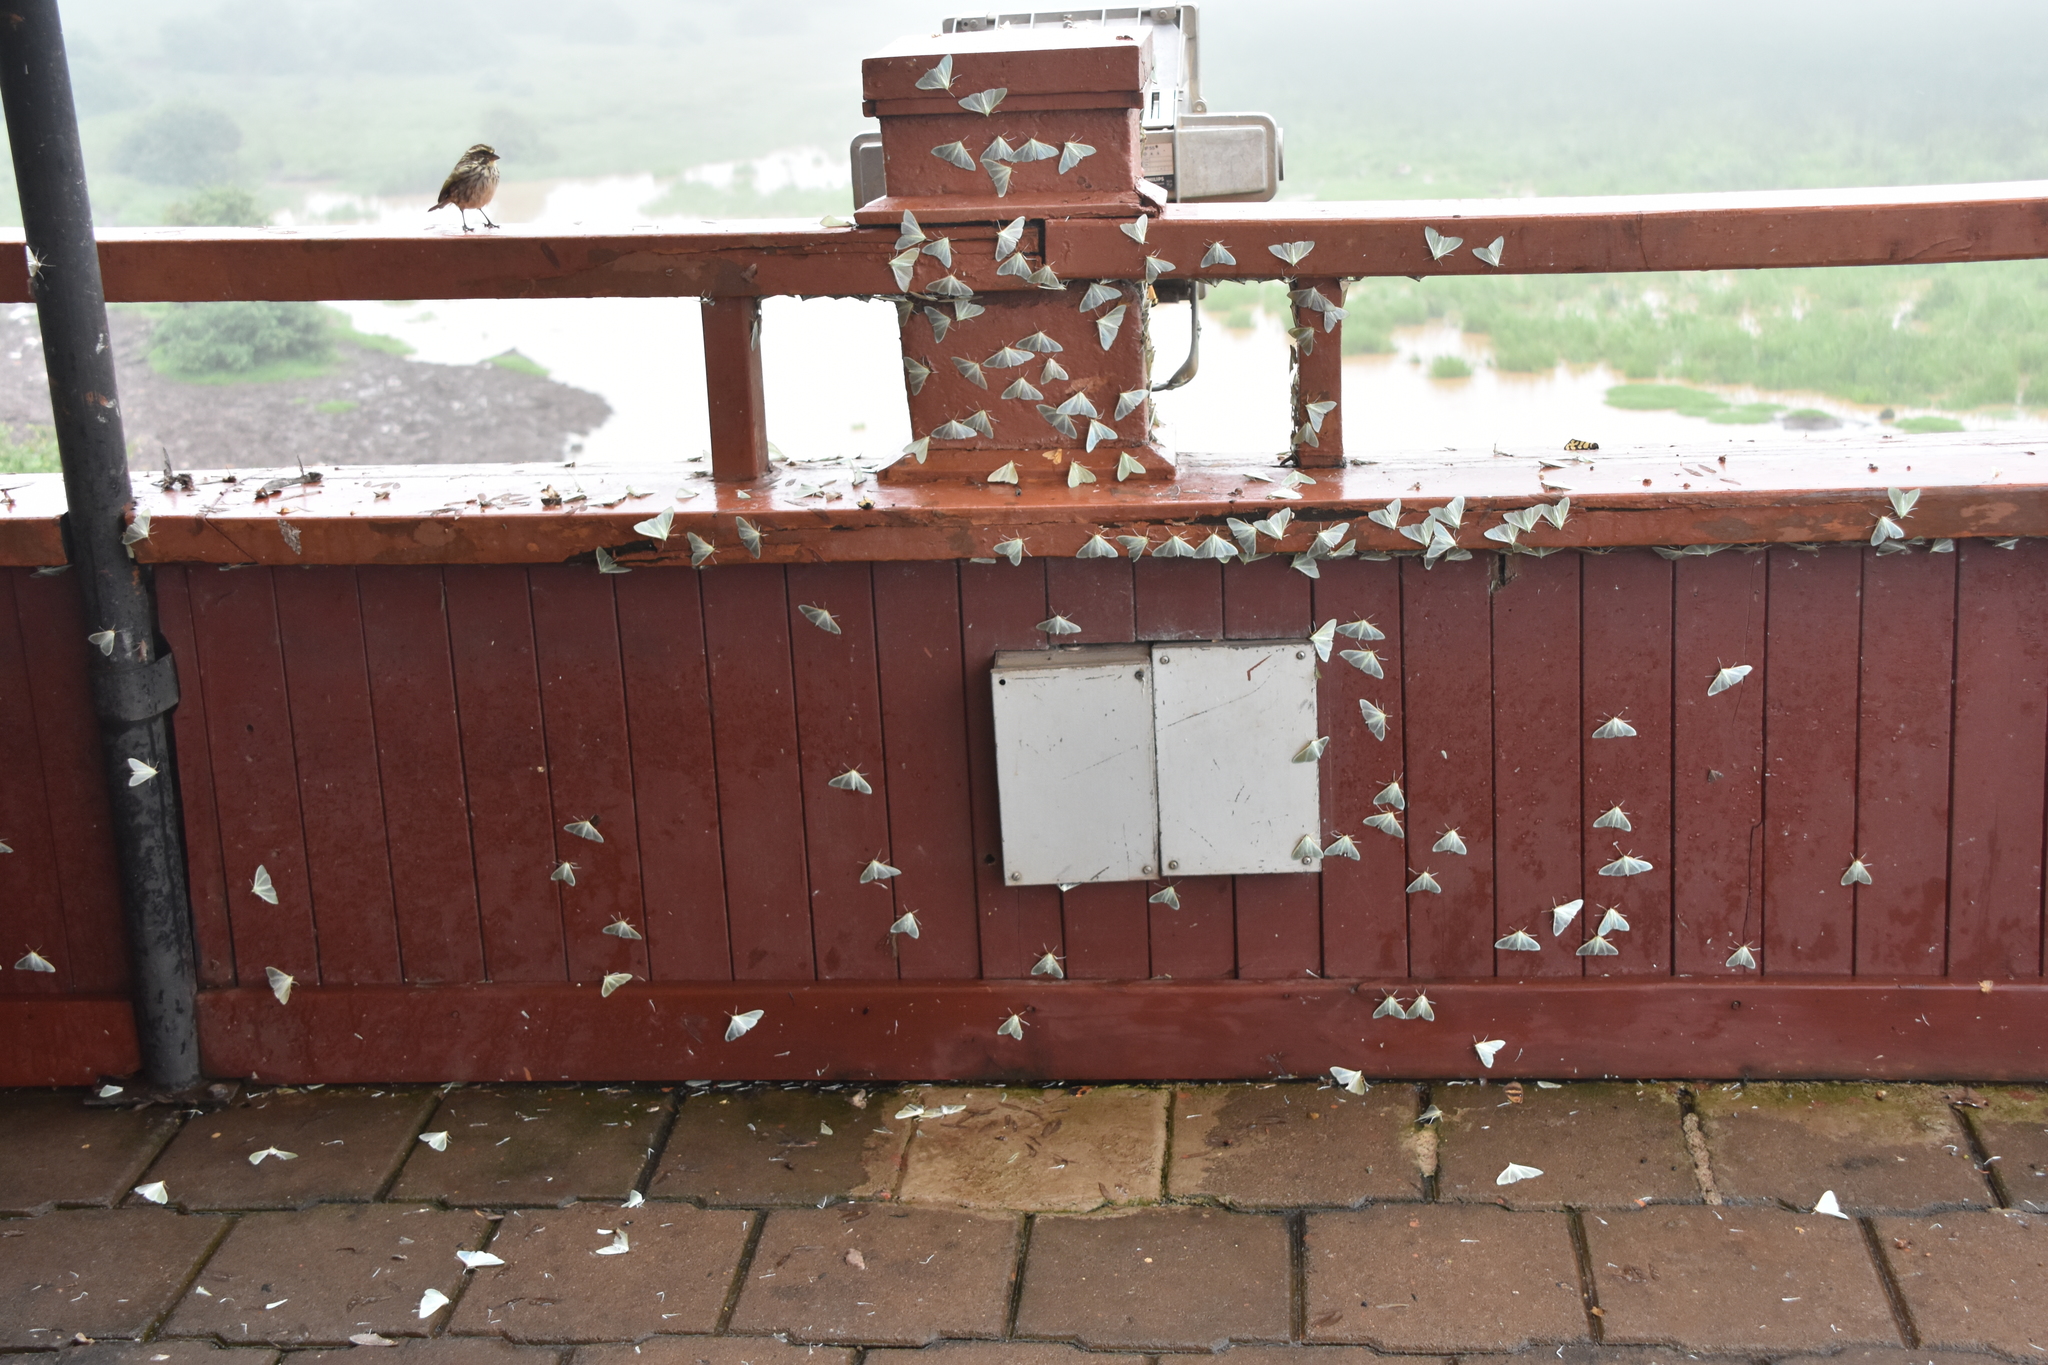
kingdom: Animalia
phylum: Chordata
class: Aves
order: Passeriformes
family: Fringillidae
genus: Crithagra
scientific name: Crithagra striolata
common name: Streaky seedeater
